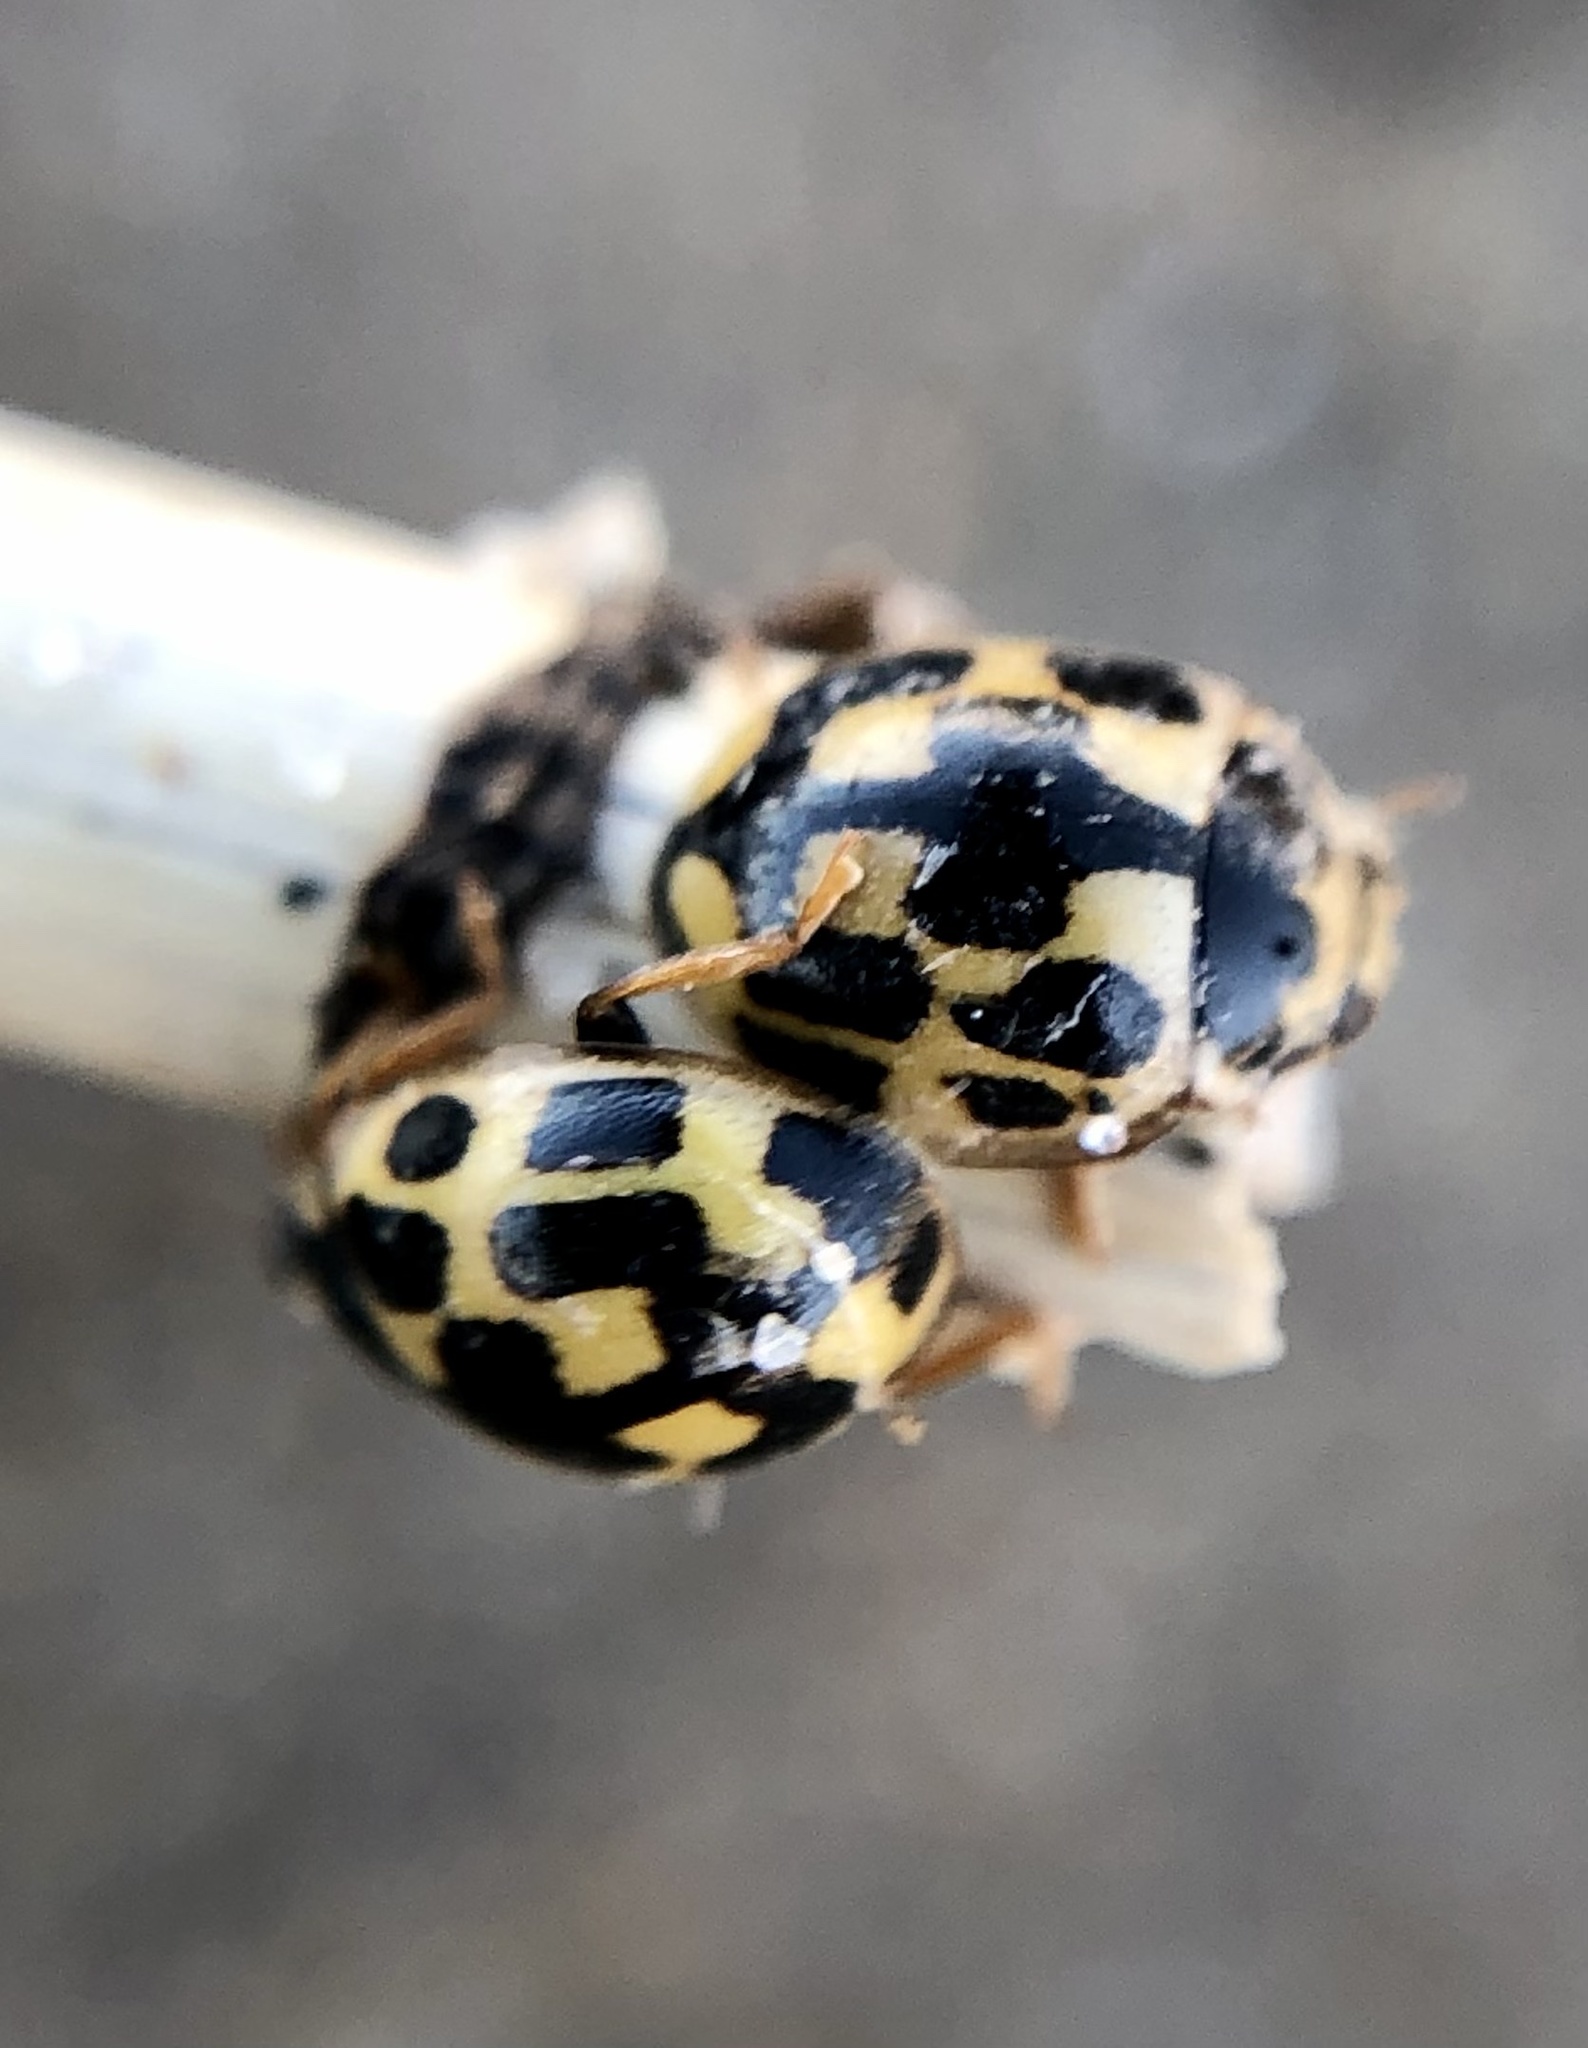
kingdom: Animalia
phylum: Arthropoda
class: Insecta
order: Coleoptera
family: Coccinellidae
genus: Propylaea
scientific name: Propylaea quatuordecimpunctata
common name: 14-spotted ladybird beetle
